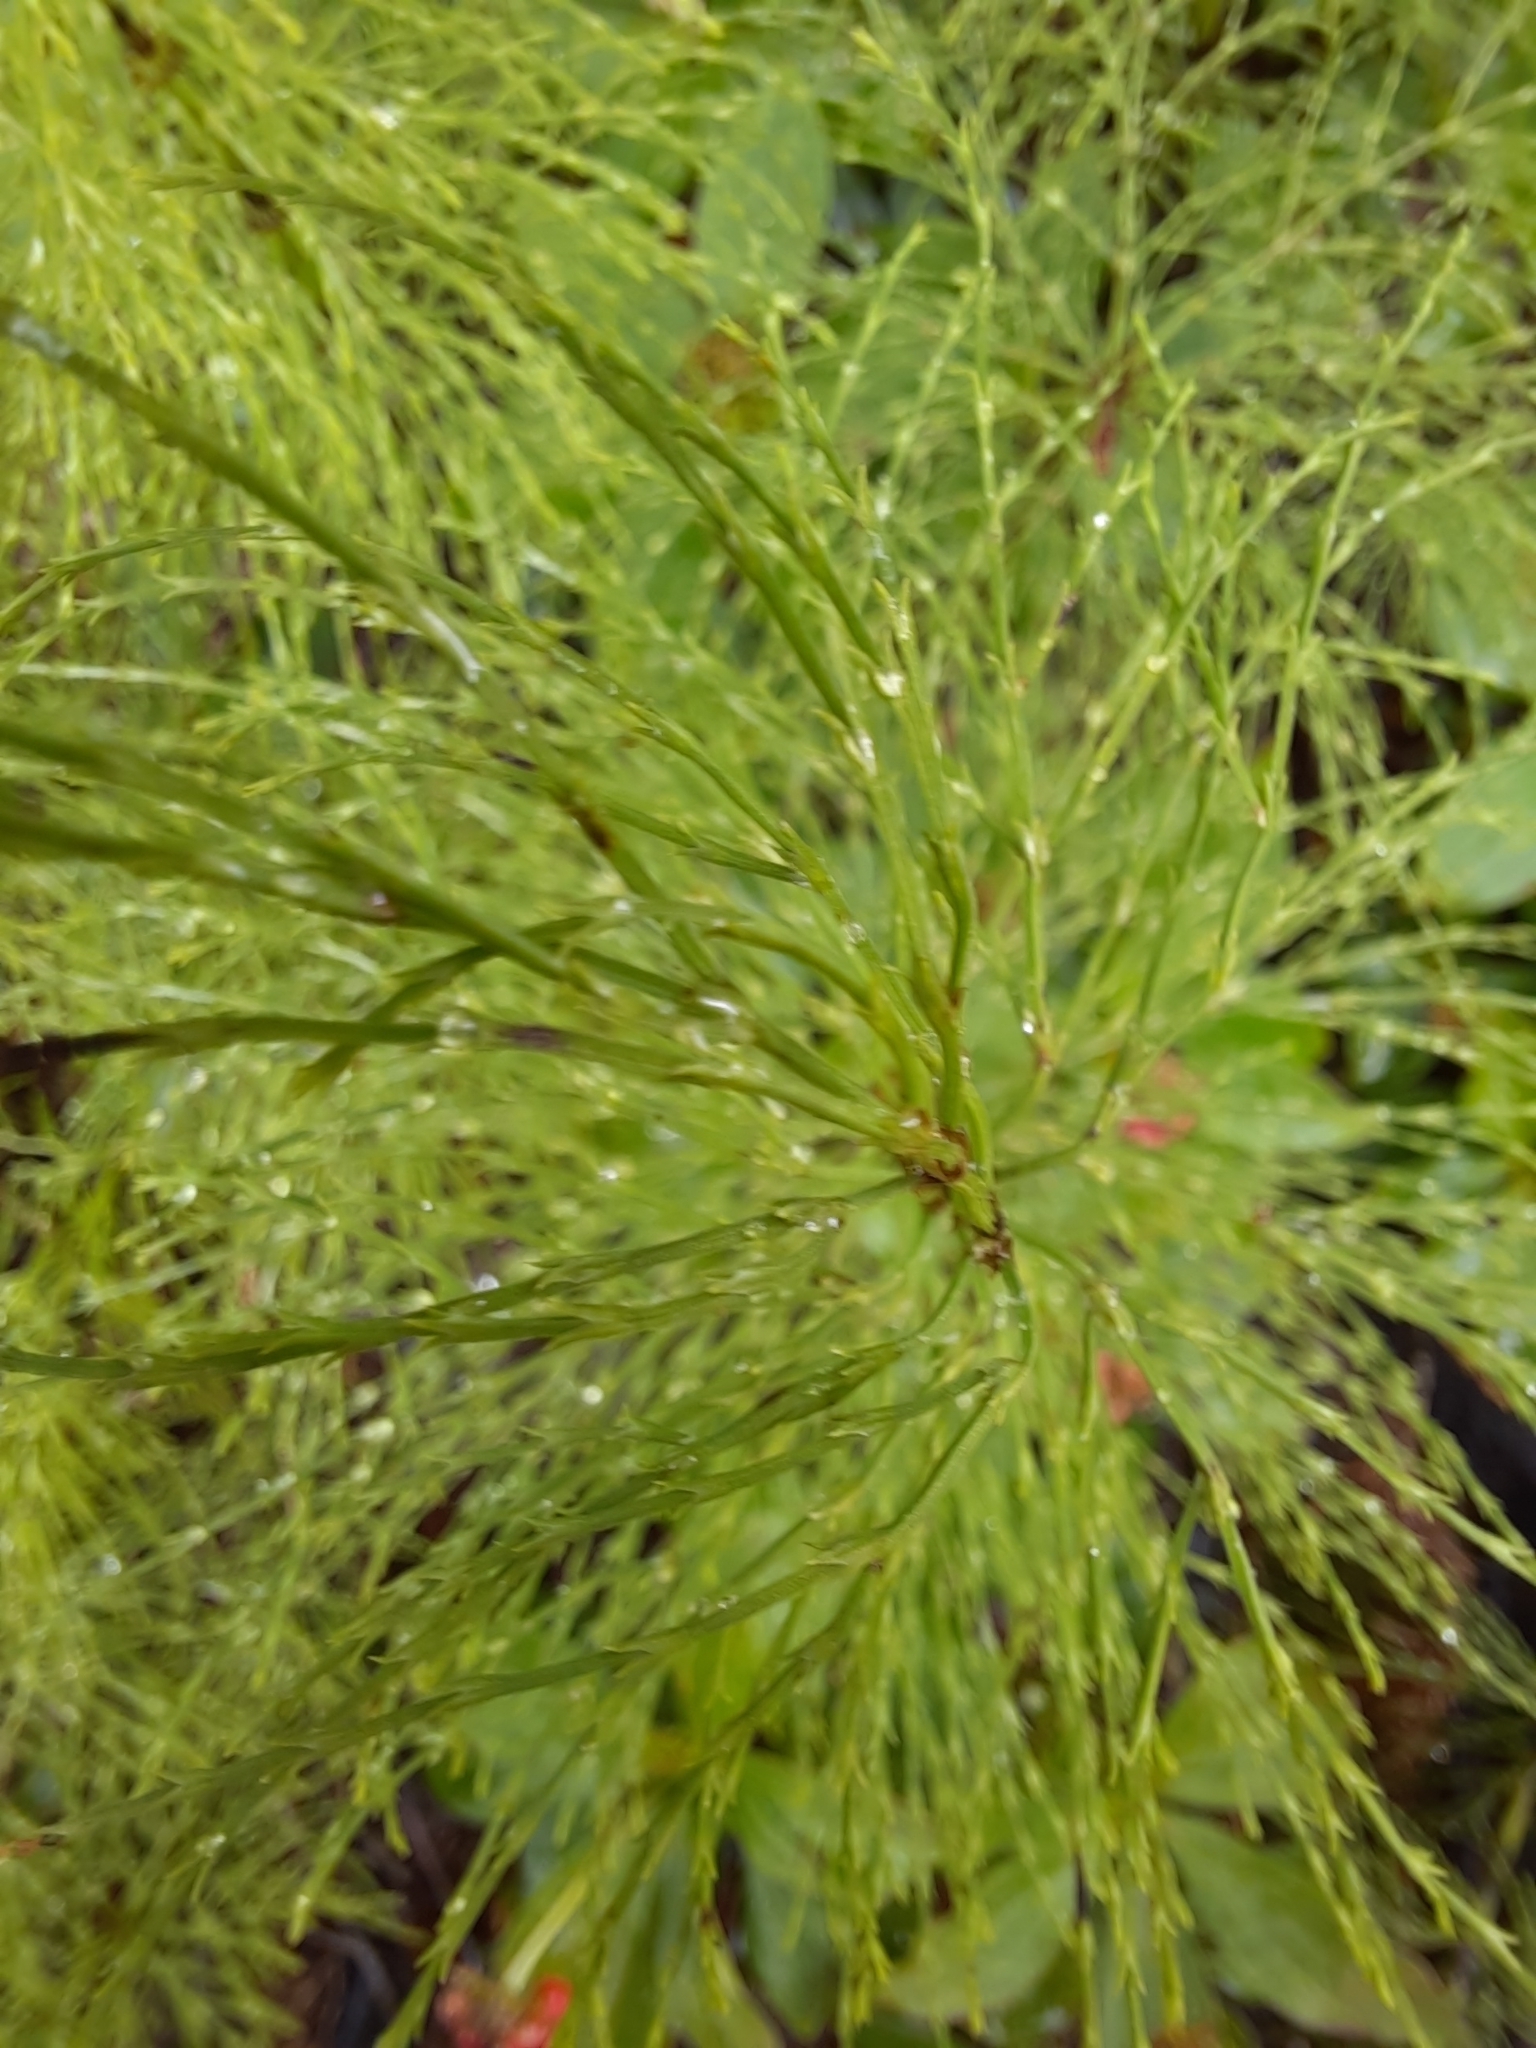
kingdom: Plantae
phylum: Tracheophyta
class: Polypodiopsida
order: Equisetales
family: Equisetaceae
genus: Equisetum
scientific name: Equisetum sylvaticum
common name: Wood horsetail
